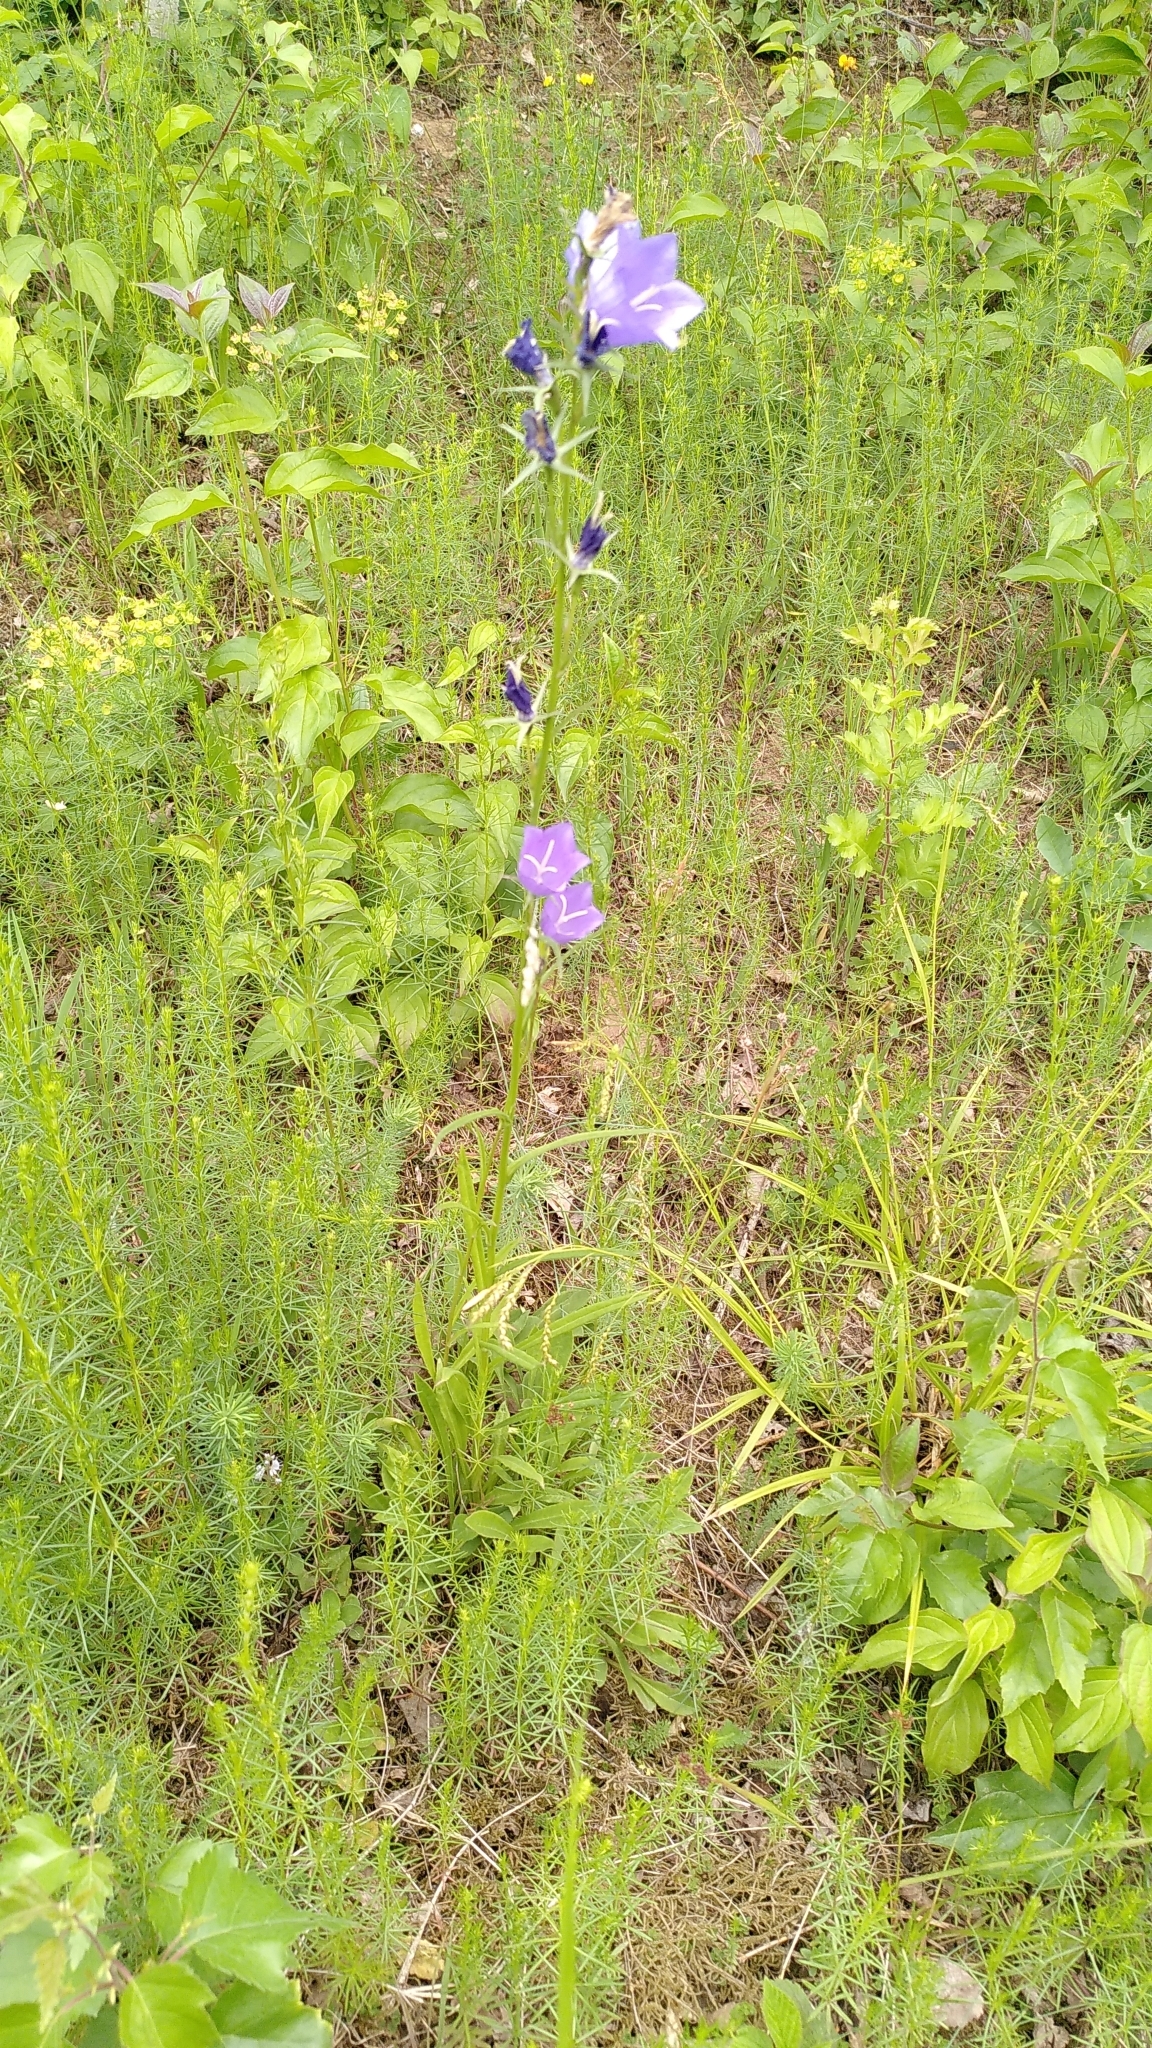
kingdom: Plantae
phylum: Tracheophyta
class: Magnoliopsida
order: Asterales
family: Campanulaceae
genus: Campanula
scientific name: Campanula persicifolia
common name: Peach-leaved bellflower
